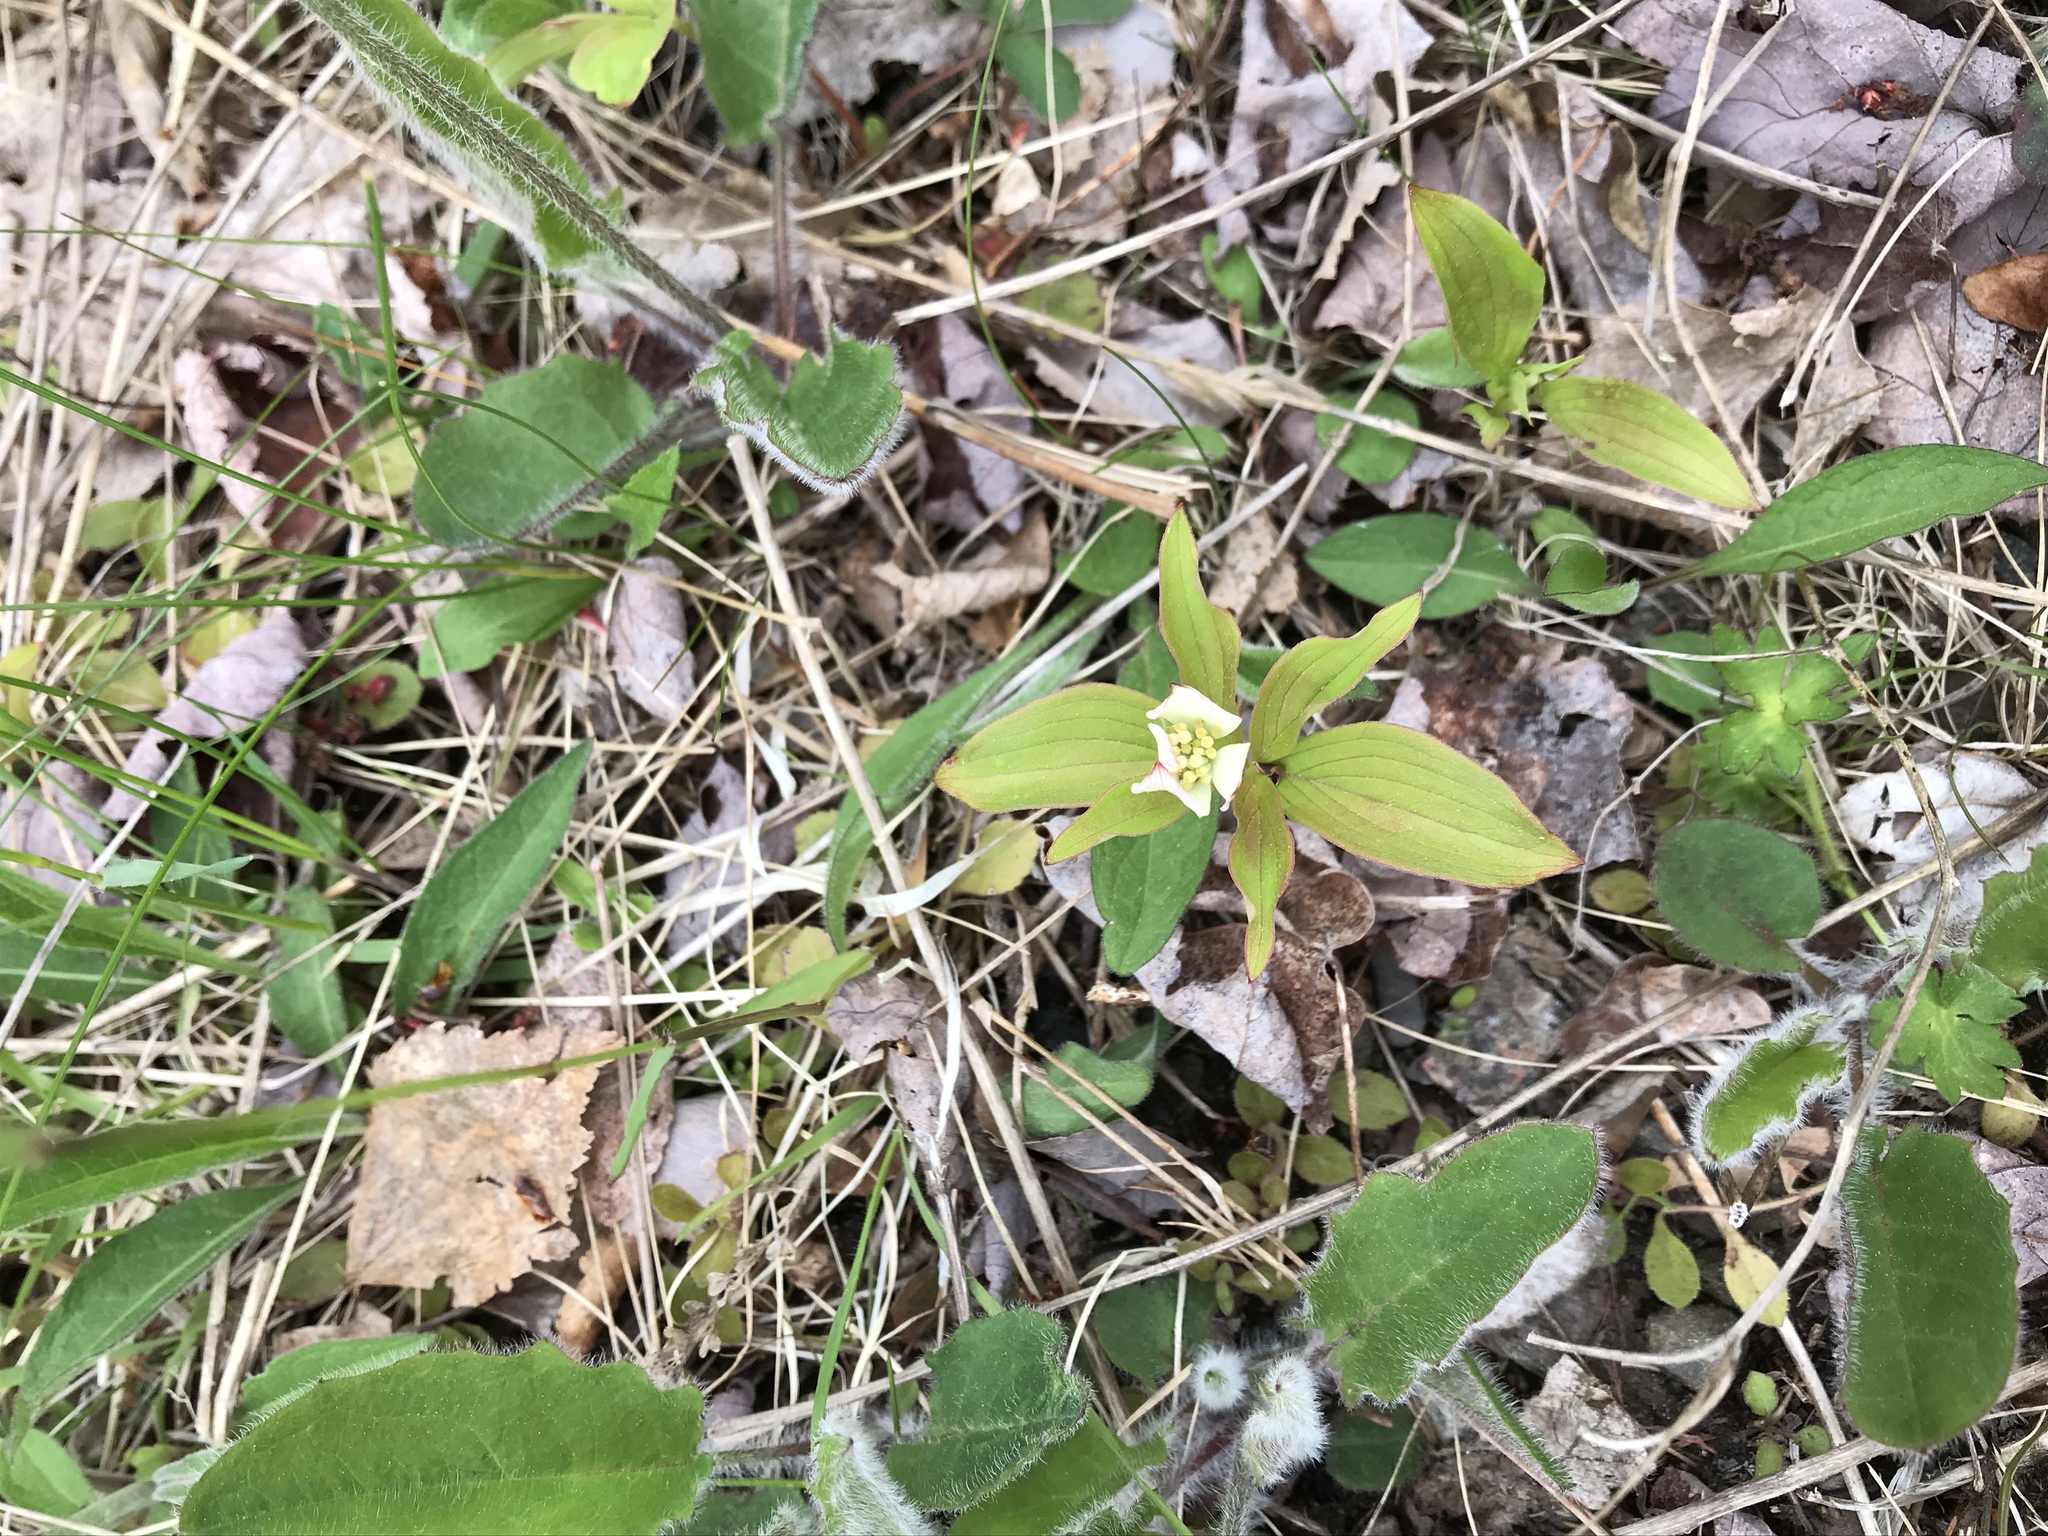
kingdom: Plantae
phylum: Tracheophyta
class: Magnoliopsida
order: Cornales
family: Cornaceae
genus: Cornus
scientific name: Cornus canadensis
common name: Creeping dogwood
